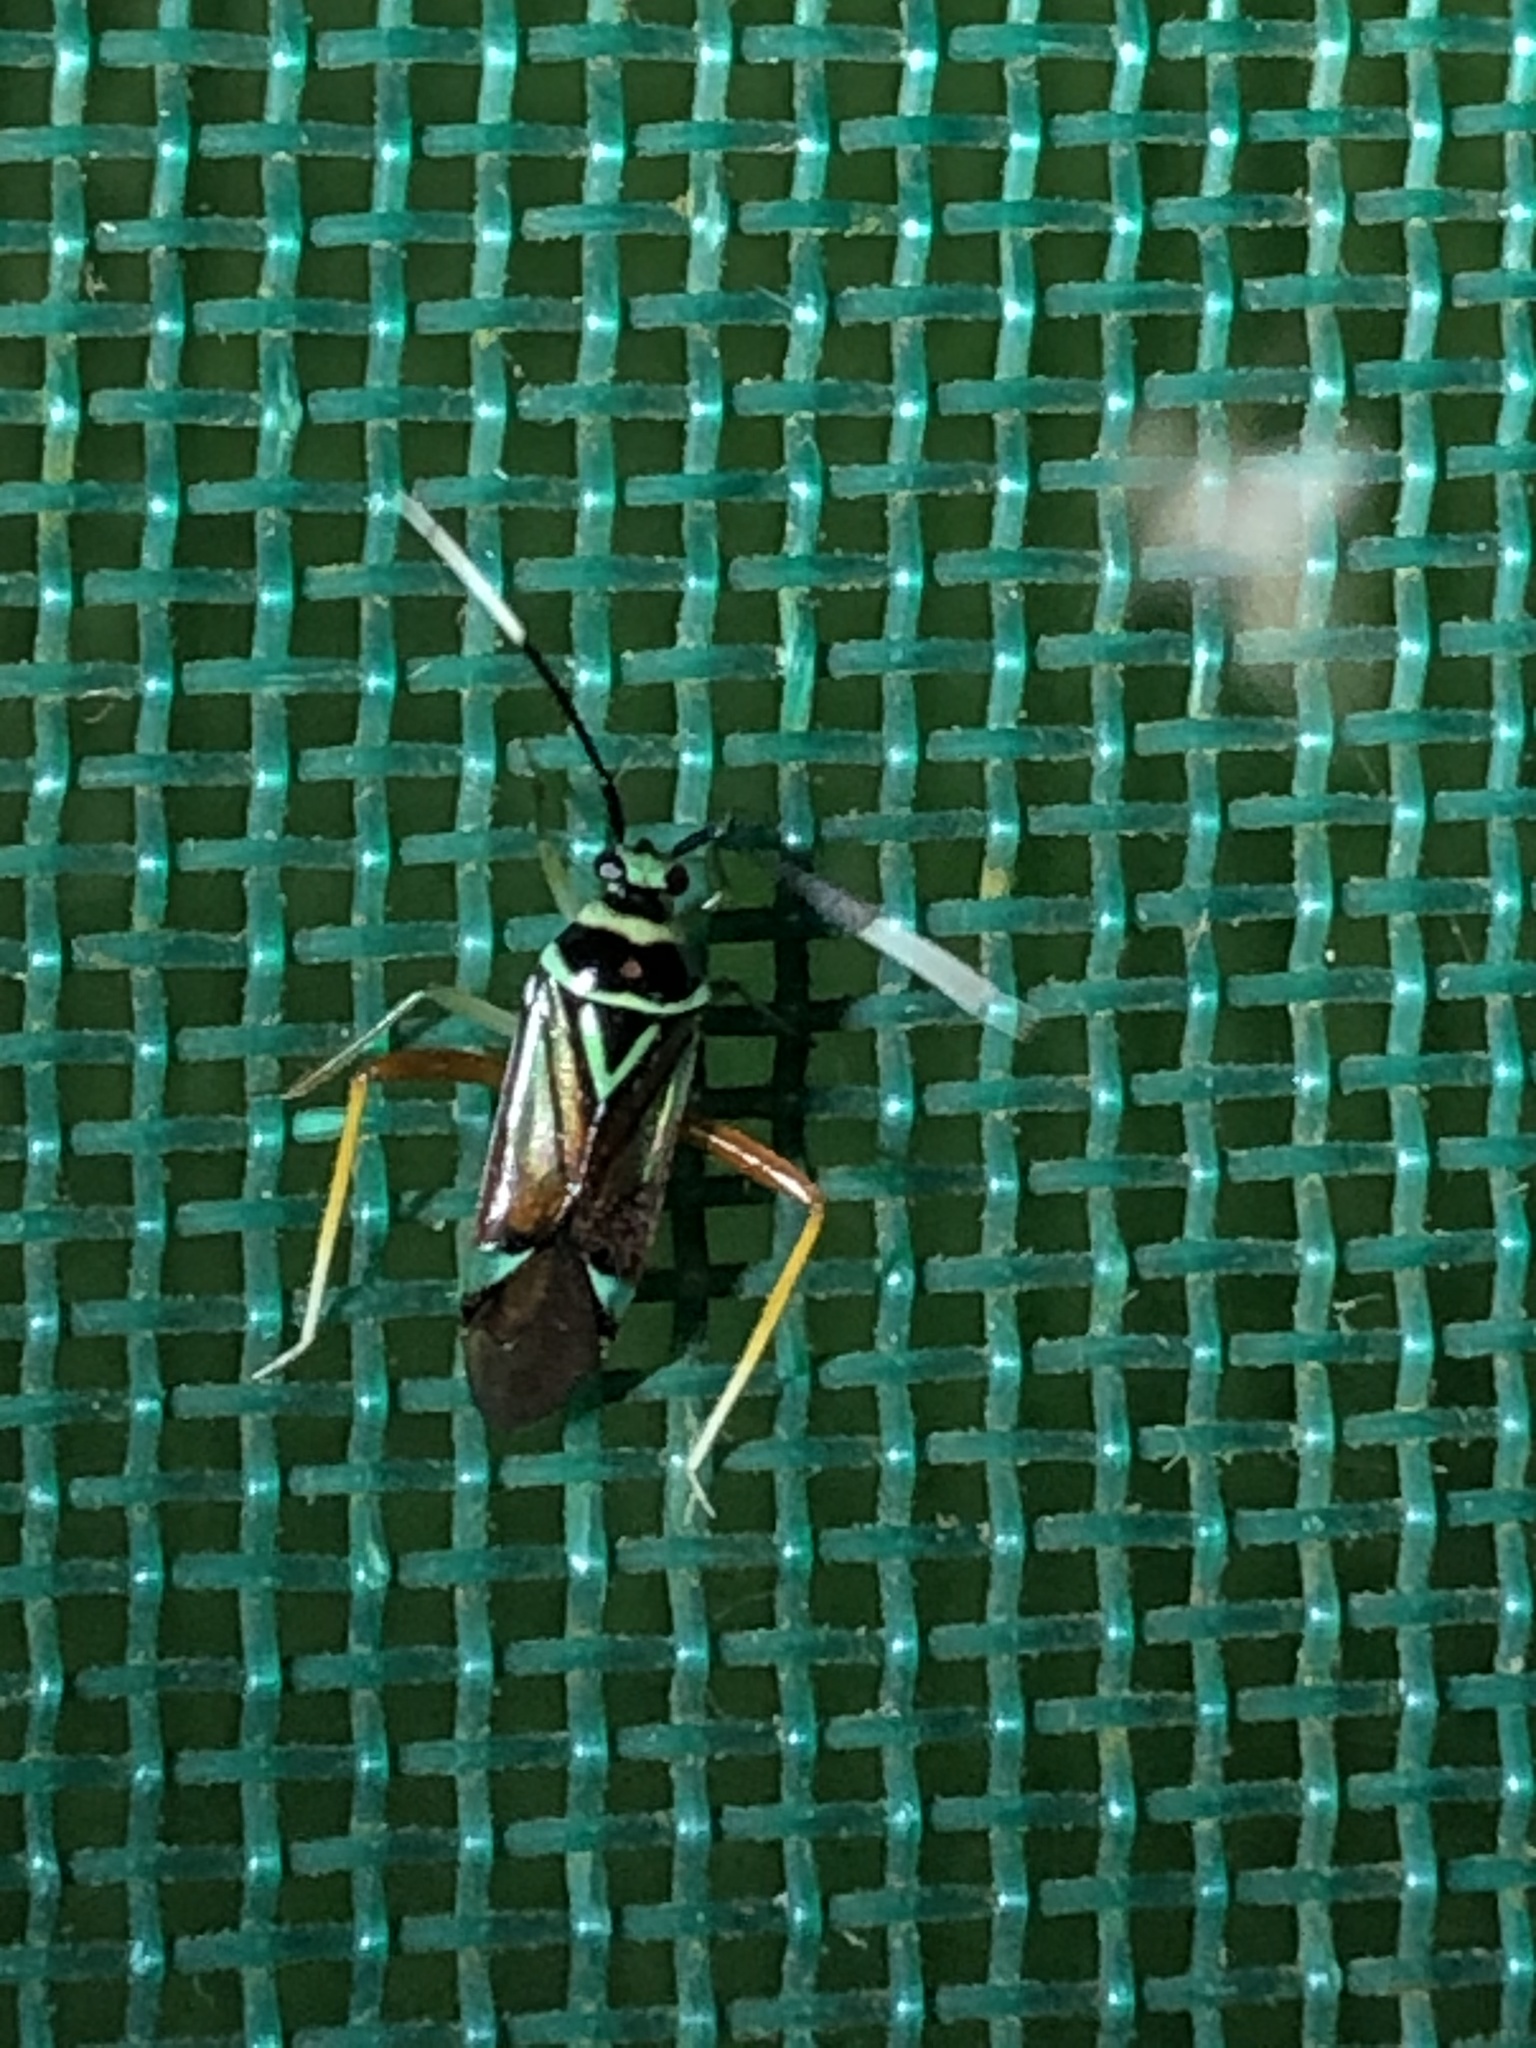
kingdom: Animalia
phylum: Arthropoda
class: Insecta
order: Hemiptera
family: Miridae
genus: Calondas
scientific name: Calondas fasciatus
